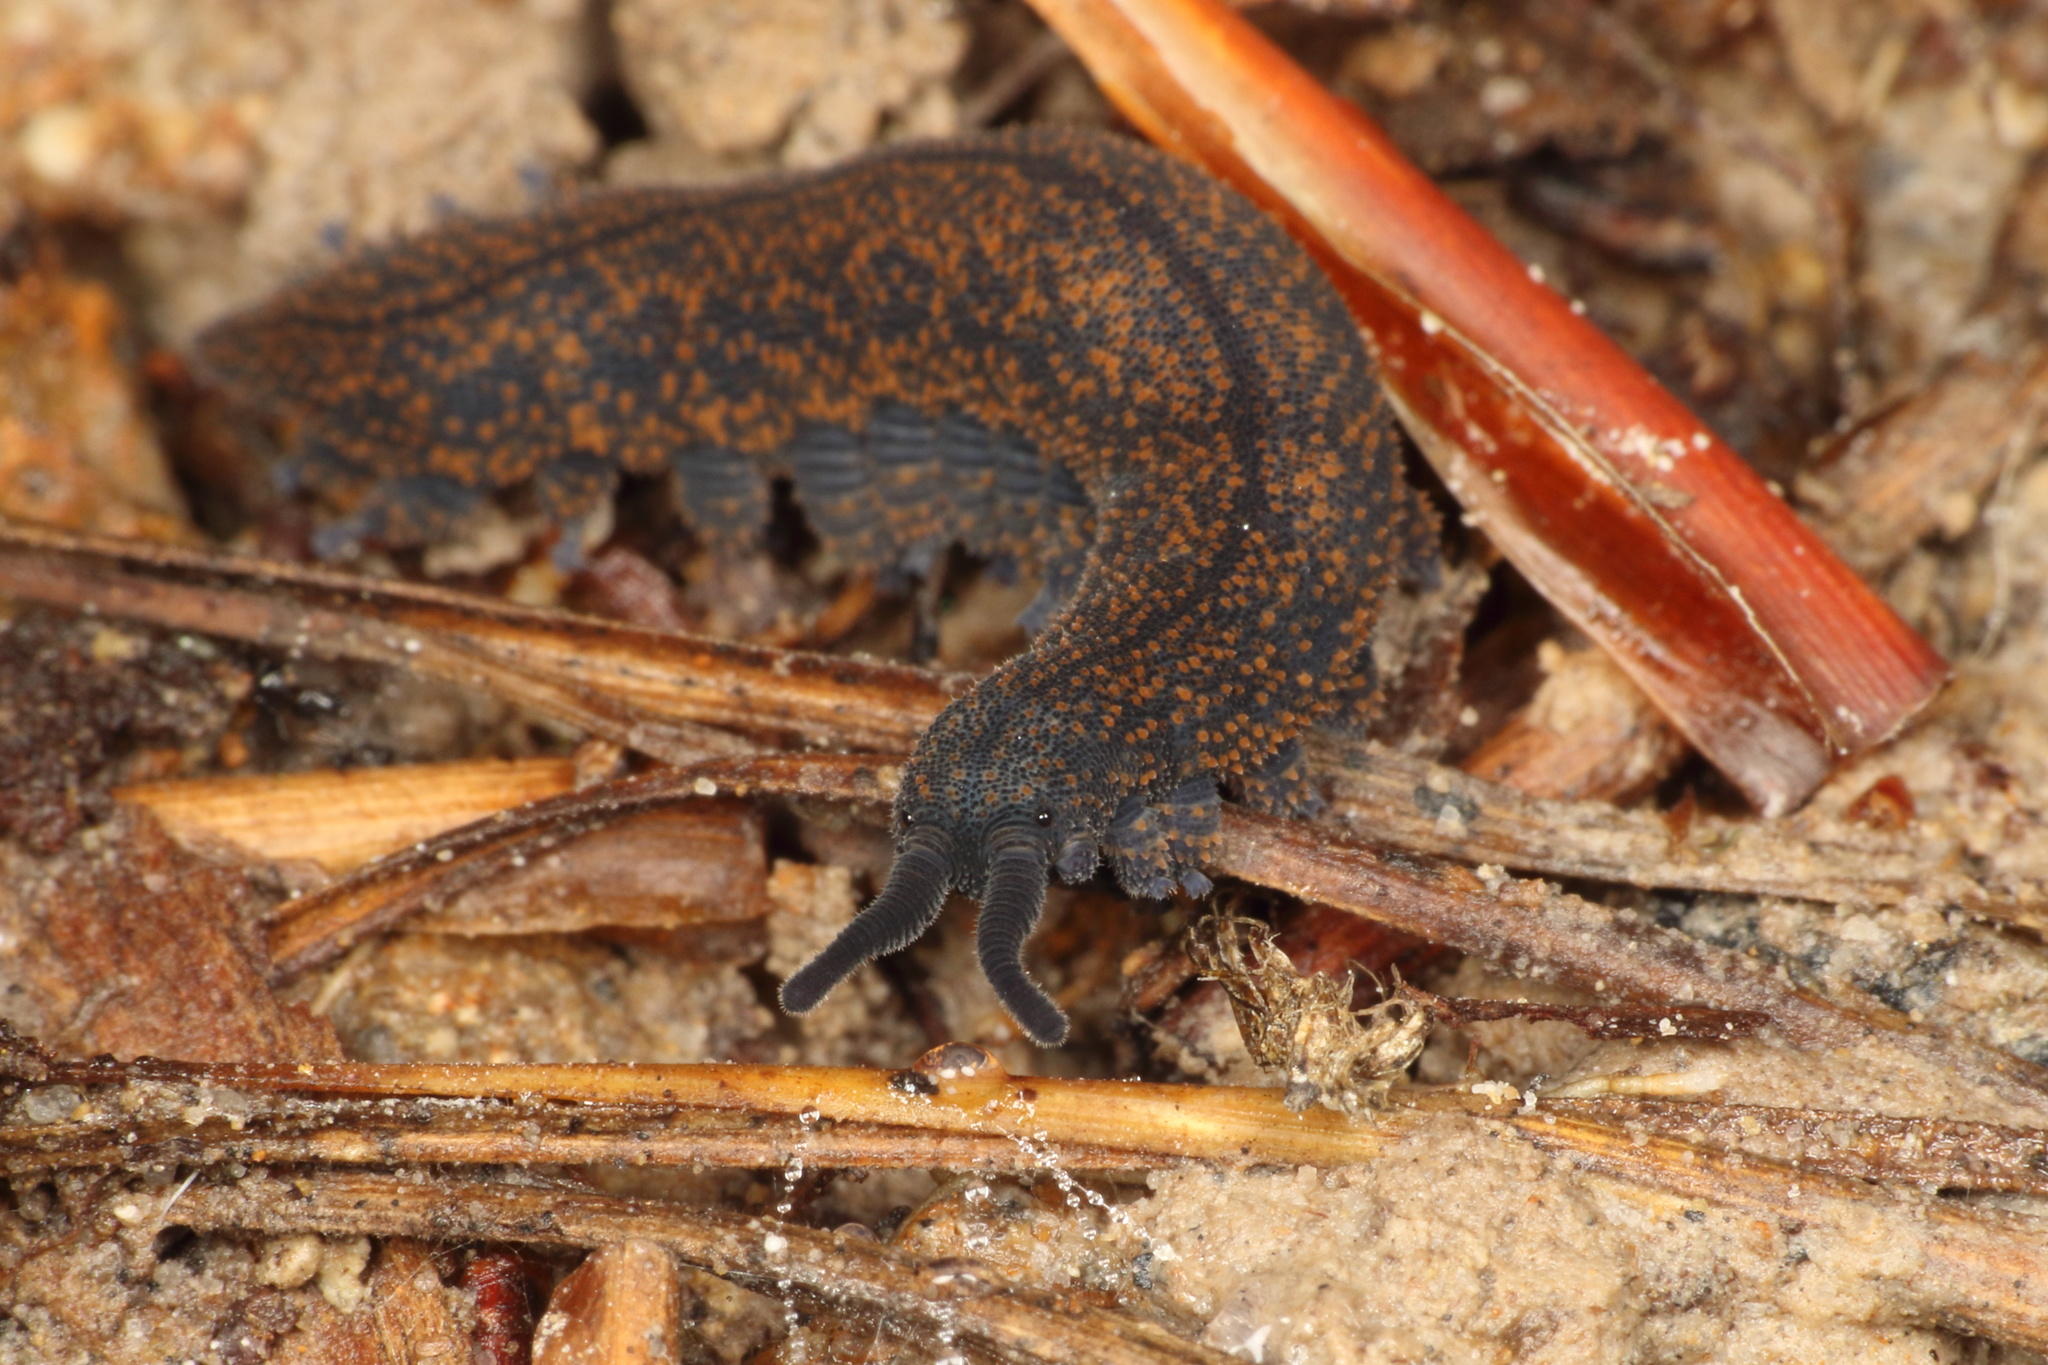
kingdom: Animalia
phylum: Onychophora
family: Peripatopsidae
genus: Peripatoides
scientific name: Peripatoides novaezealandiae
